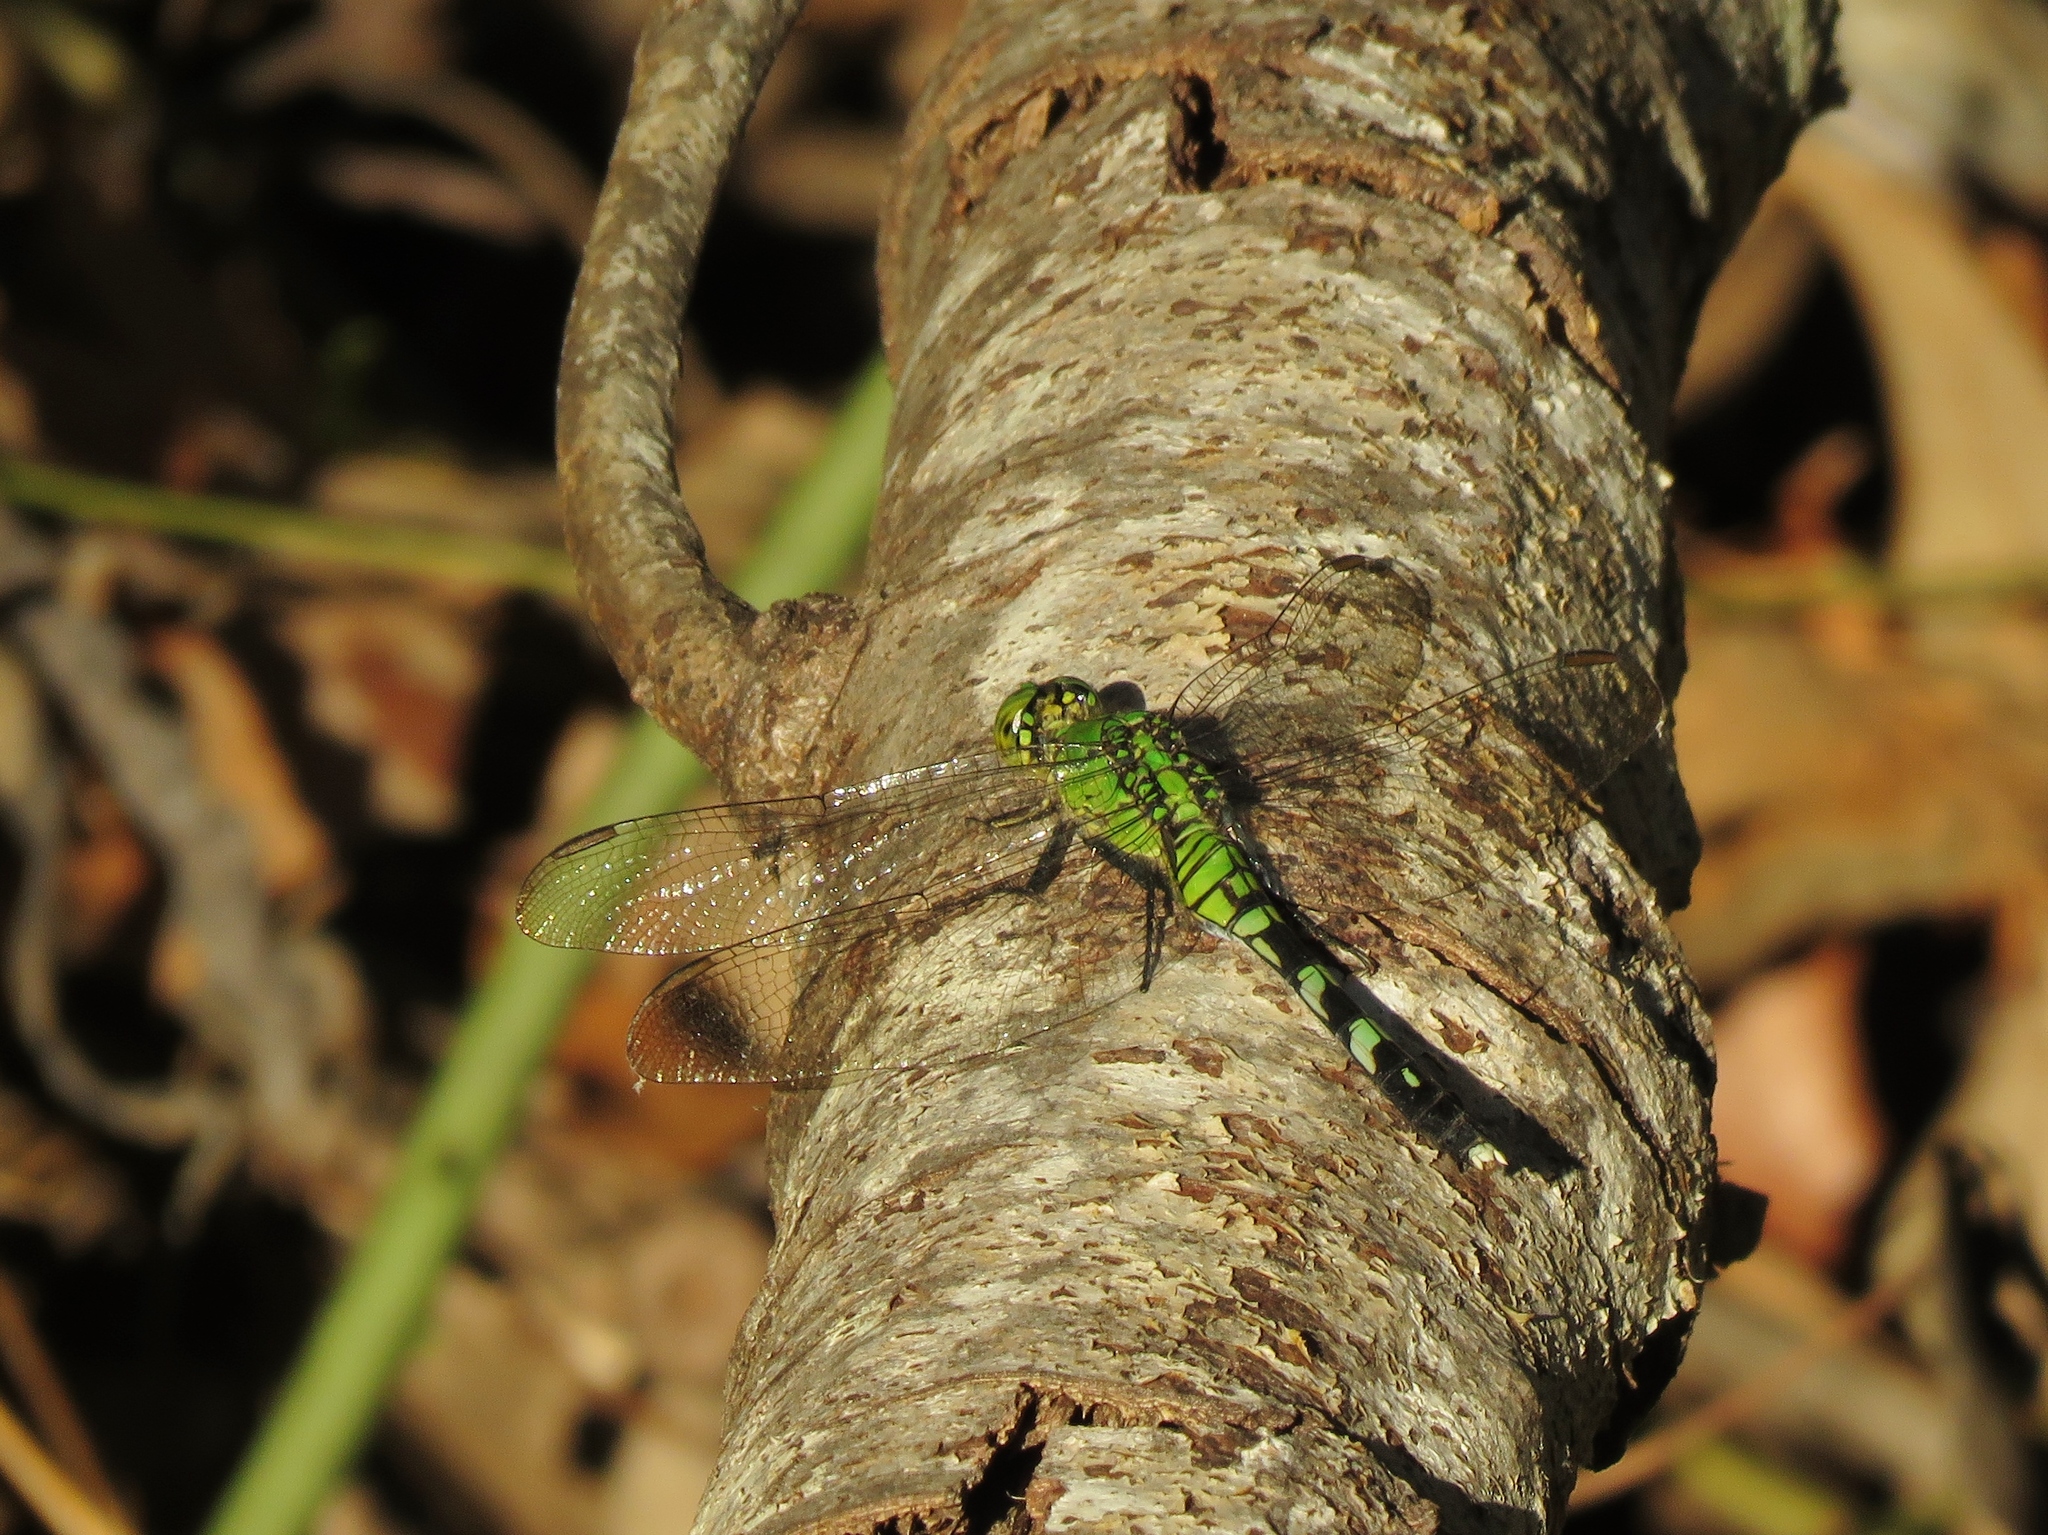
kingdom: Animalia
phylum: Arthropoda
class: Insecta
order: Odonata
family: Libellulidae
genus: Erythemis
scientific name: Erythemis simplicicollis
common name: Eastern pondhawk
